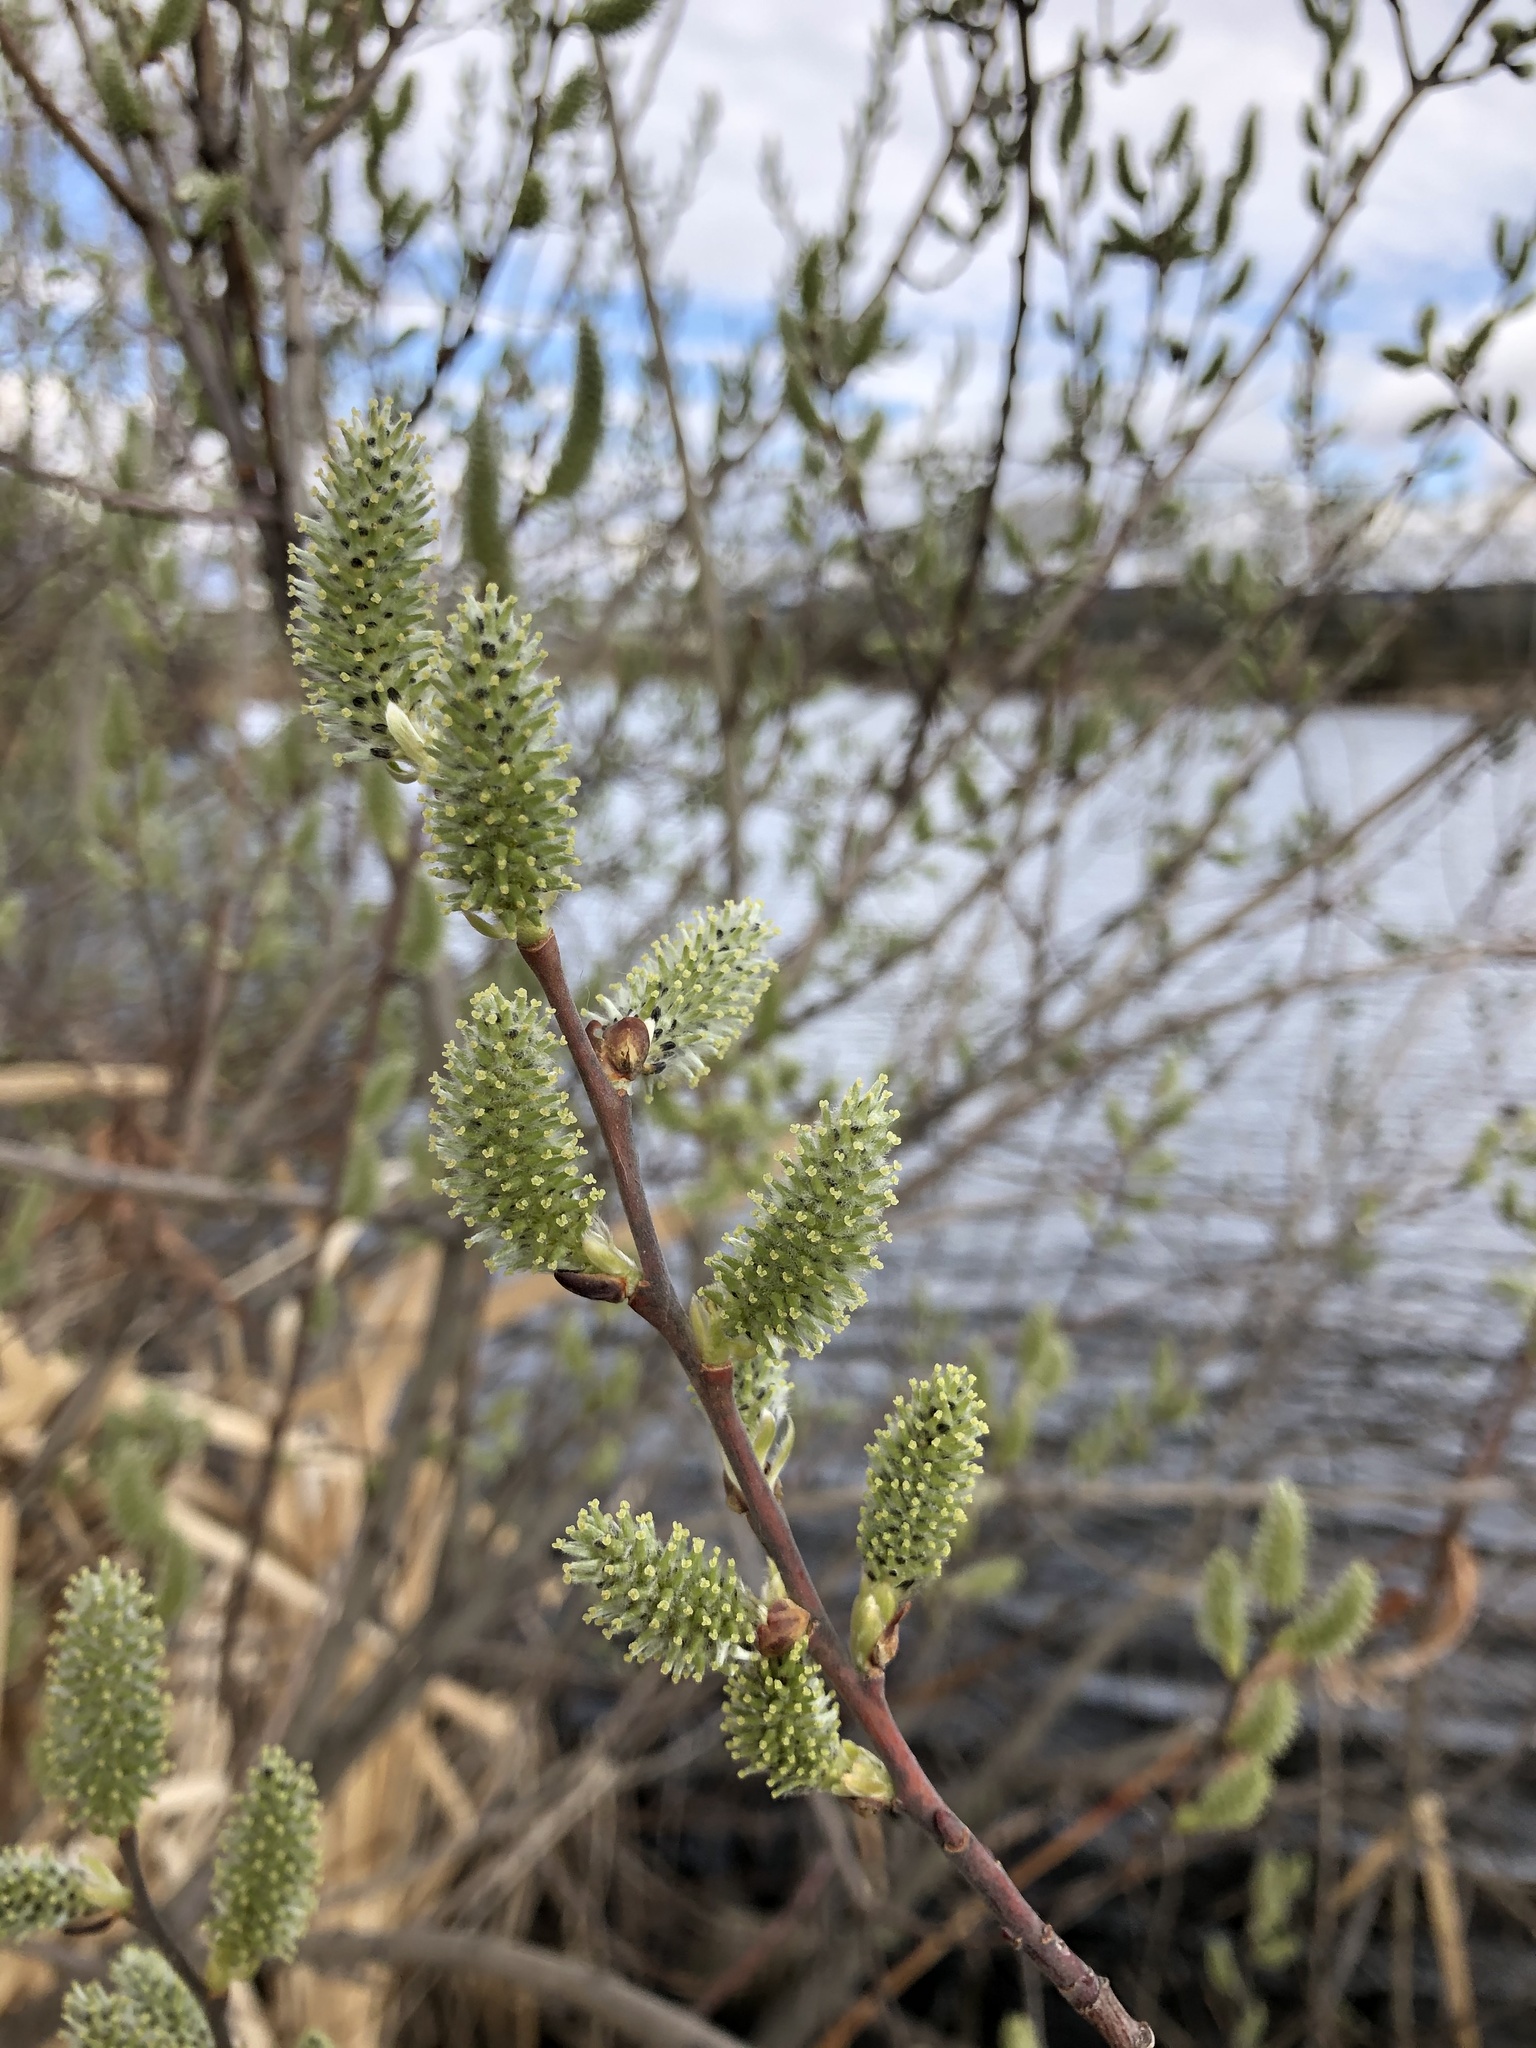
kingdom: Plantae
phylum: Tracheophyta
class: Magnoliopsida
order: Malpighiales
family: Salicaceae
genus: Salix
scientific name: Salix cinerea
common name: Common sallow
